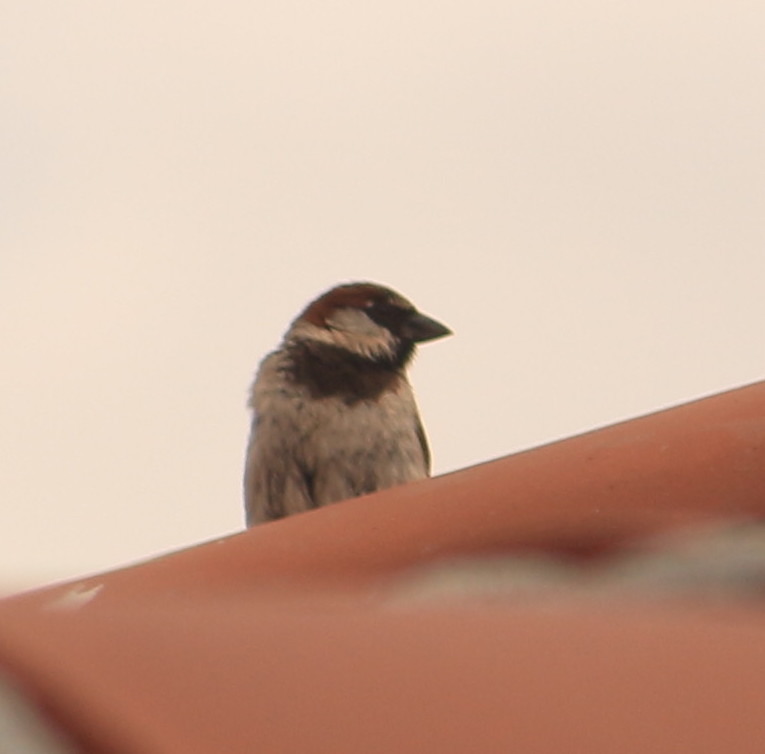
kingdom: Animalia
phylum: Chordata
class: Aves
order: Passeriformes
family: Passeridae
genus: Passer
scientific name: Passer domesticus
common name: House sparrow
